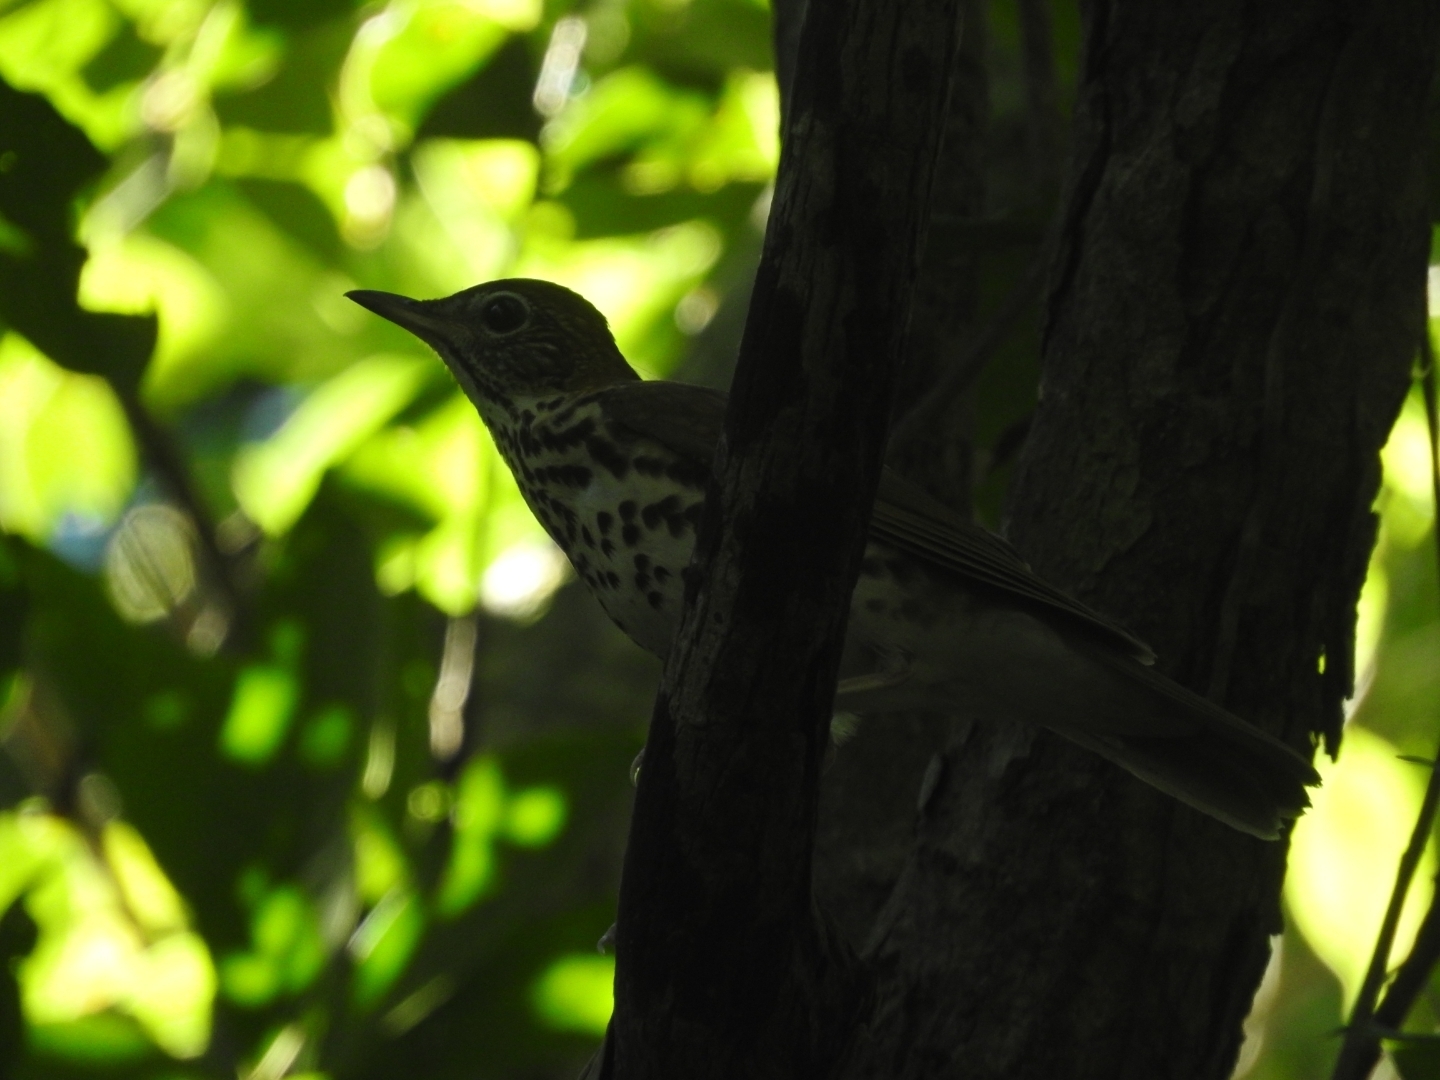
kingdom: Animalia
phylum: Chordata
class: Aves
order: Passeriformes
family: Turdidae
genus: Hylocichla
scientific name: Hylocichla mustelina
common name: Wood thrush
